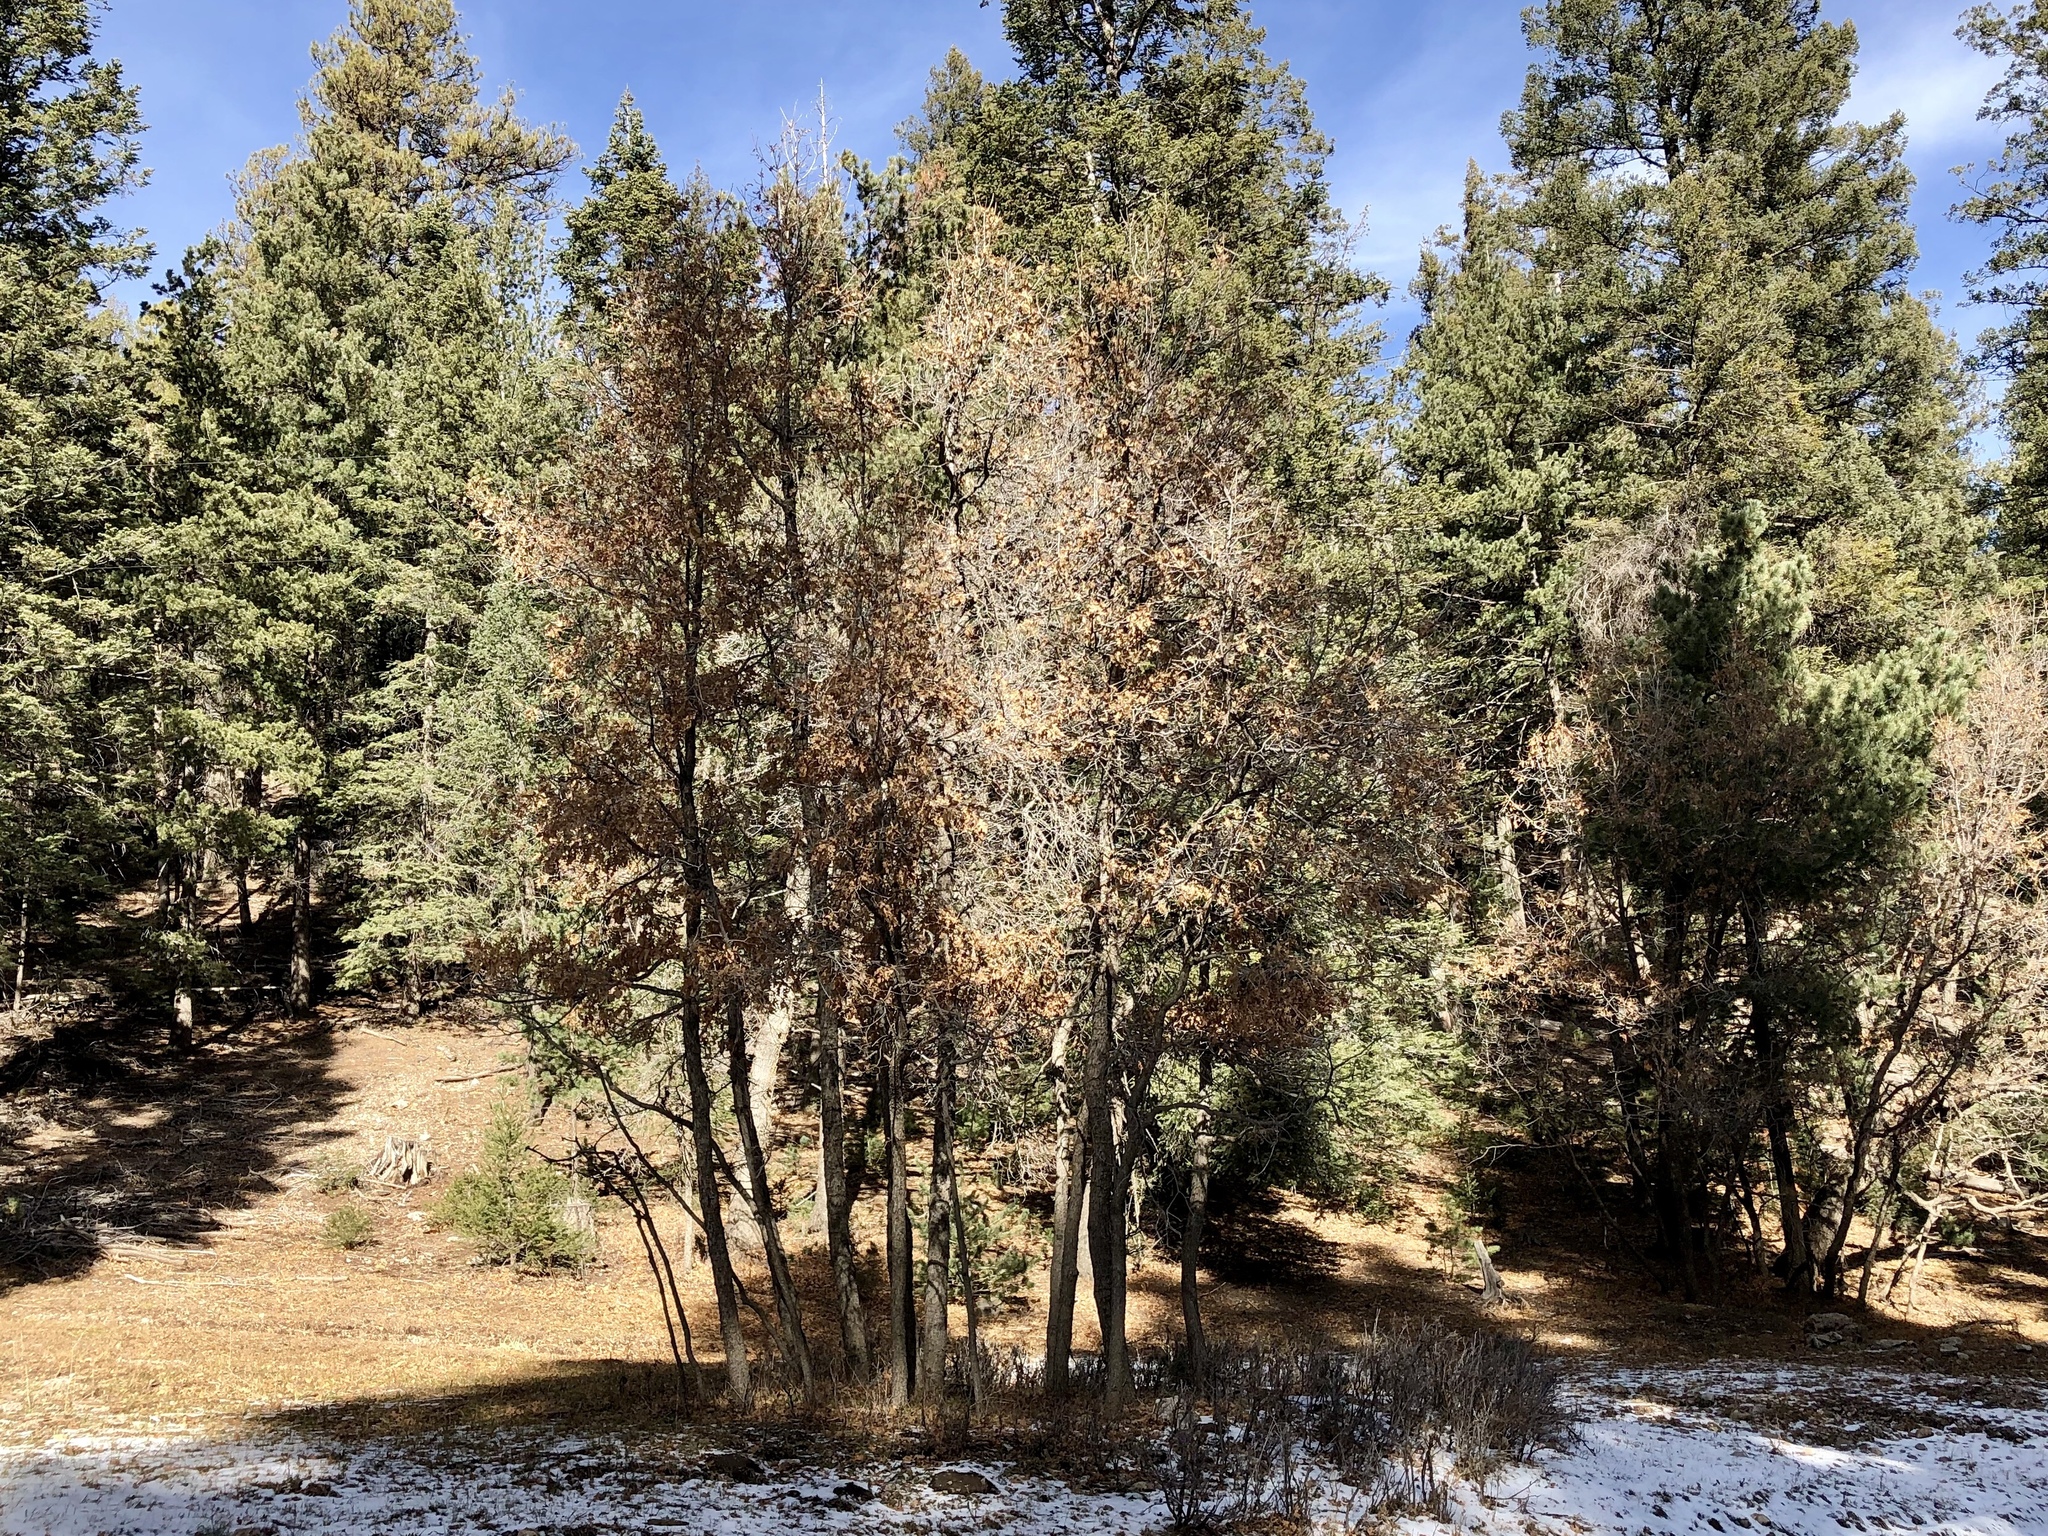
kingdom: Plantae
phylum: Tracheophyta
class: Magnoliopsida
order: Fagales
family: Fagaceae
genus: Quercus
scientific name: Quercus gambelii
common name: Gambel oak
